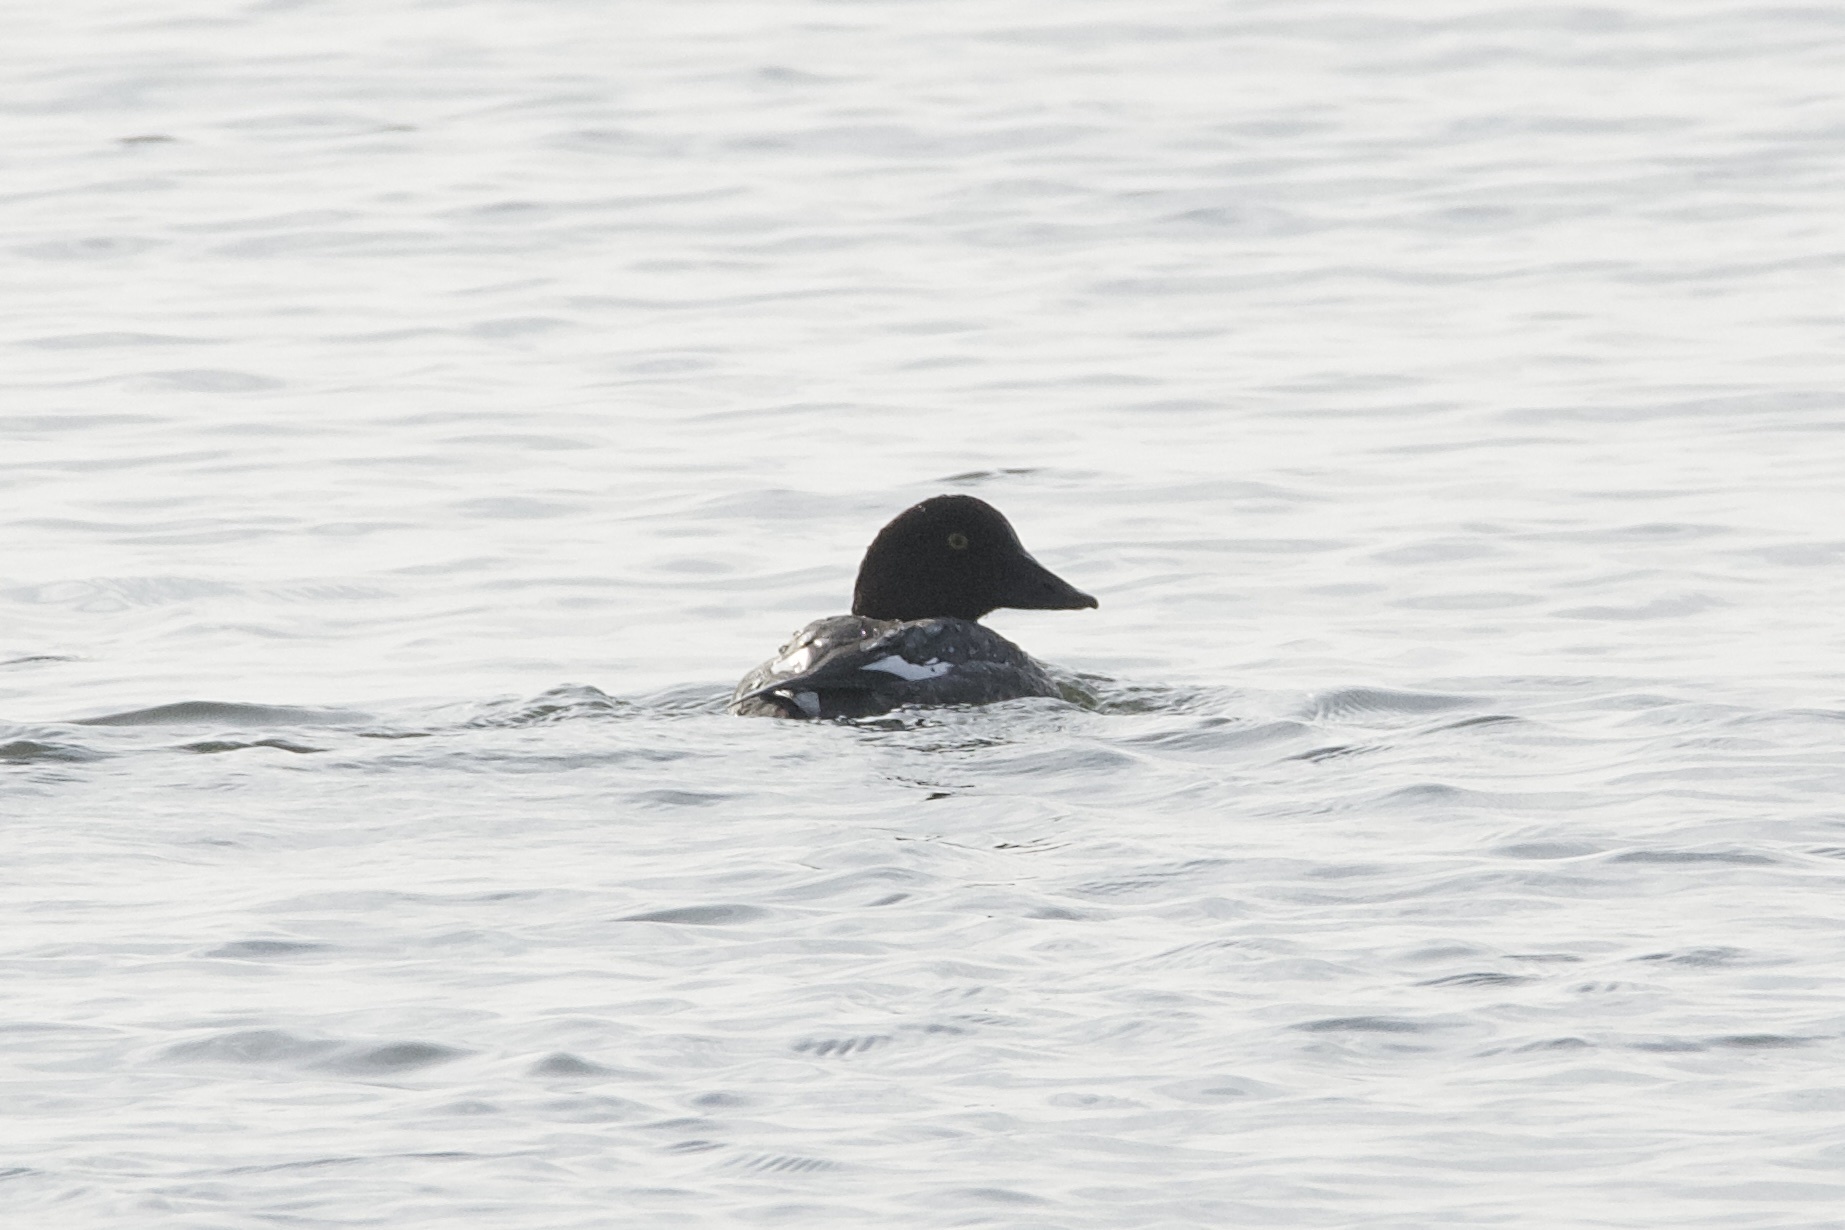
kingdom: Animalia
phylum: Chordata
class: Aves
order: Anseriformes
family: Anatidae
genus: Bucephala
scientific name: Bucephala clangula
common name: Common goldeneye
